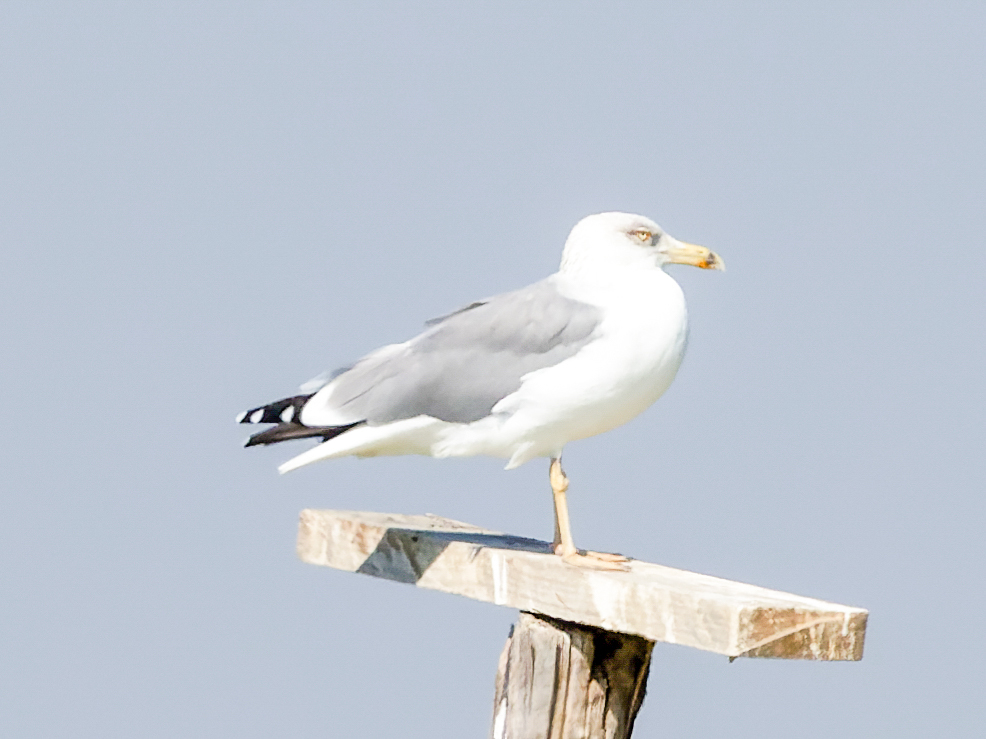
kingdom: Animalia
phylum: Chordata
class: Aves
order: Charadriiformes
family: Laridae
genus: Larus
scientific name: Larus michahellis
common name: Yellow-legged gull
